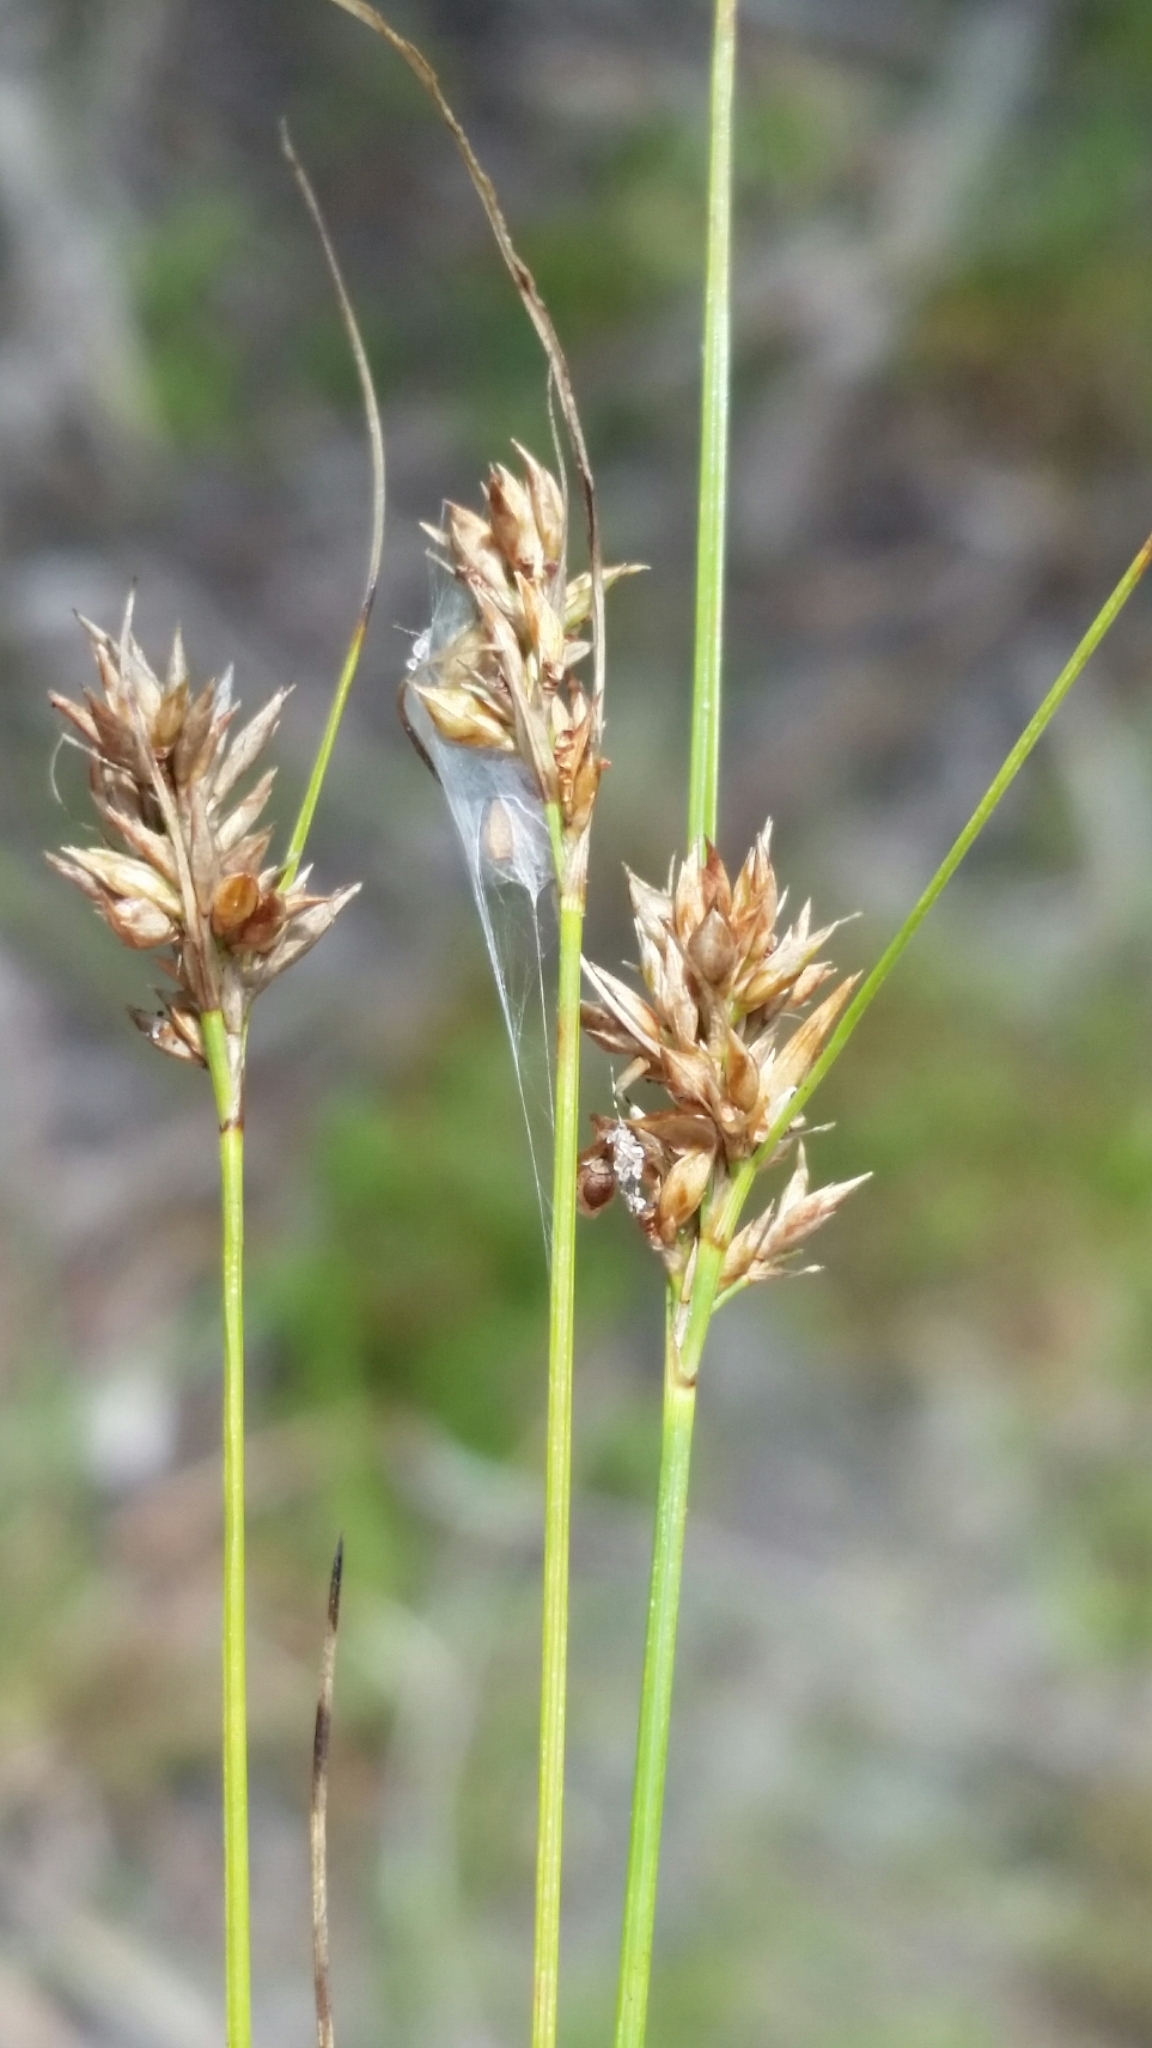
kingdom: Plantae
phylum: Tracheophyta
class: Liliopsida
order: Poales
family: Cyperaceae
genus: Rhynchospora
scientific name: Rhynchospora plumosa
